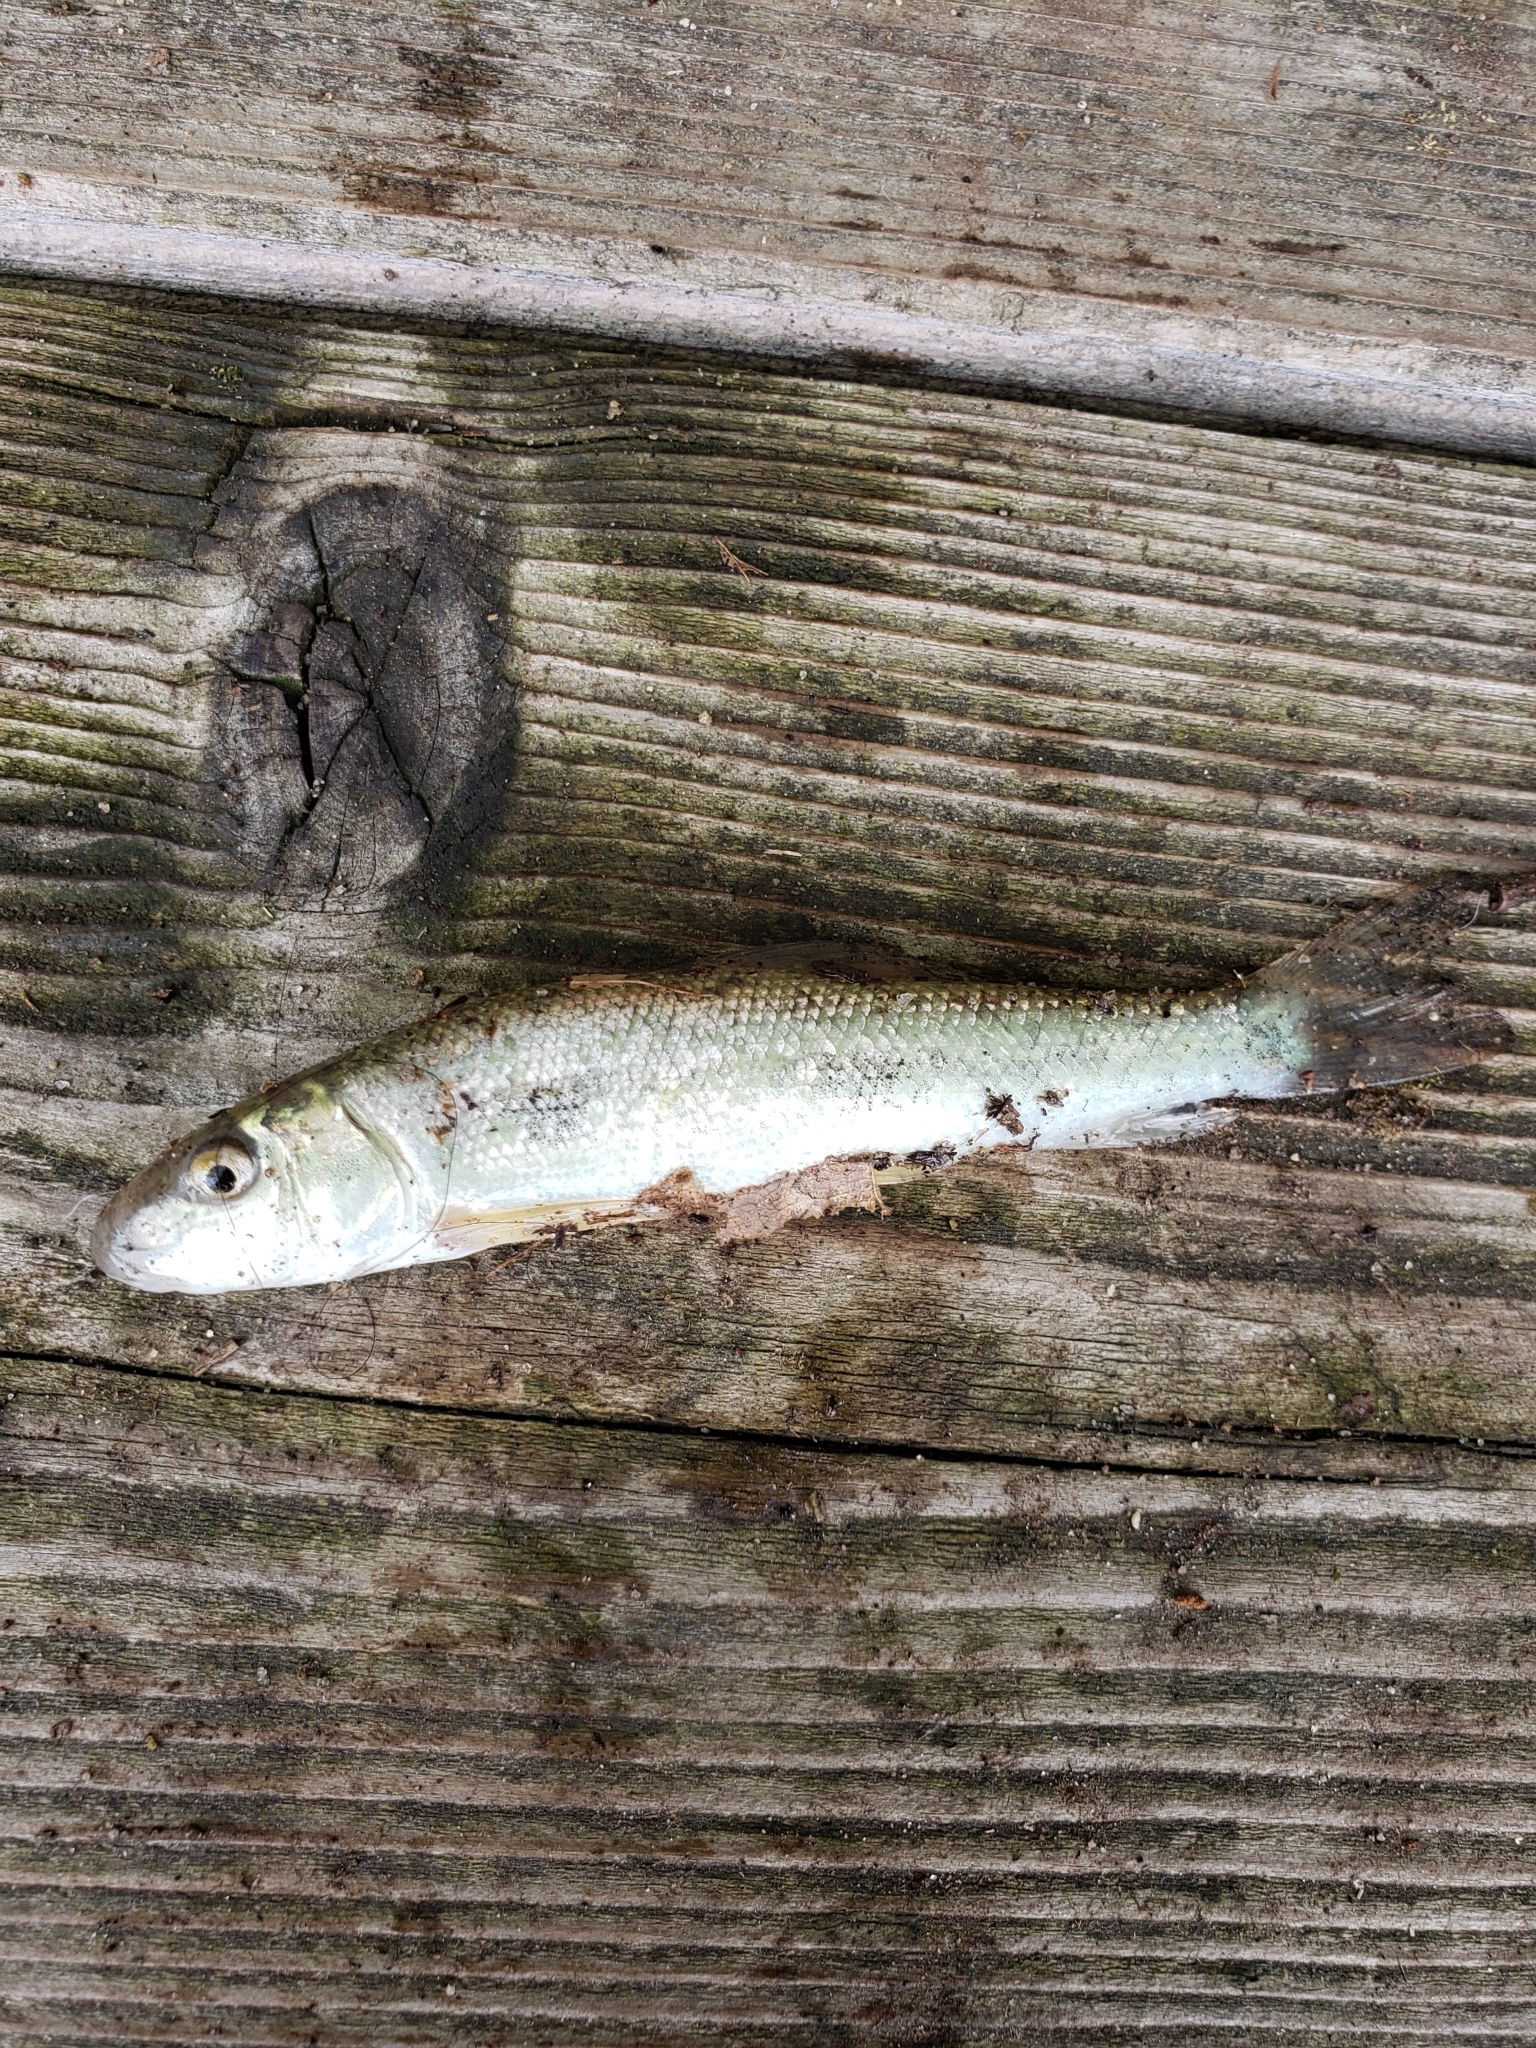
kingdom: Animalia
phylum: Chordata
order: Cypriniformes
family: Catostomidae
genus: Catostomus
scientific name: Catostomus commersonii
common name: White sucker
